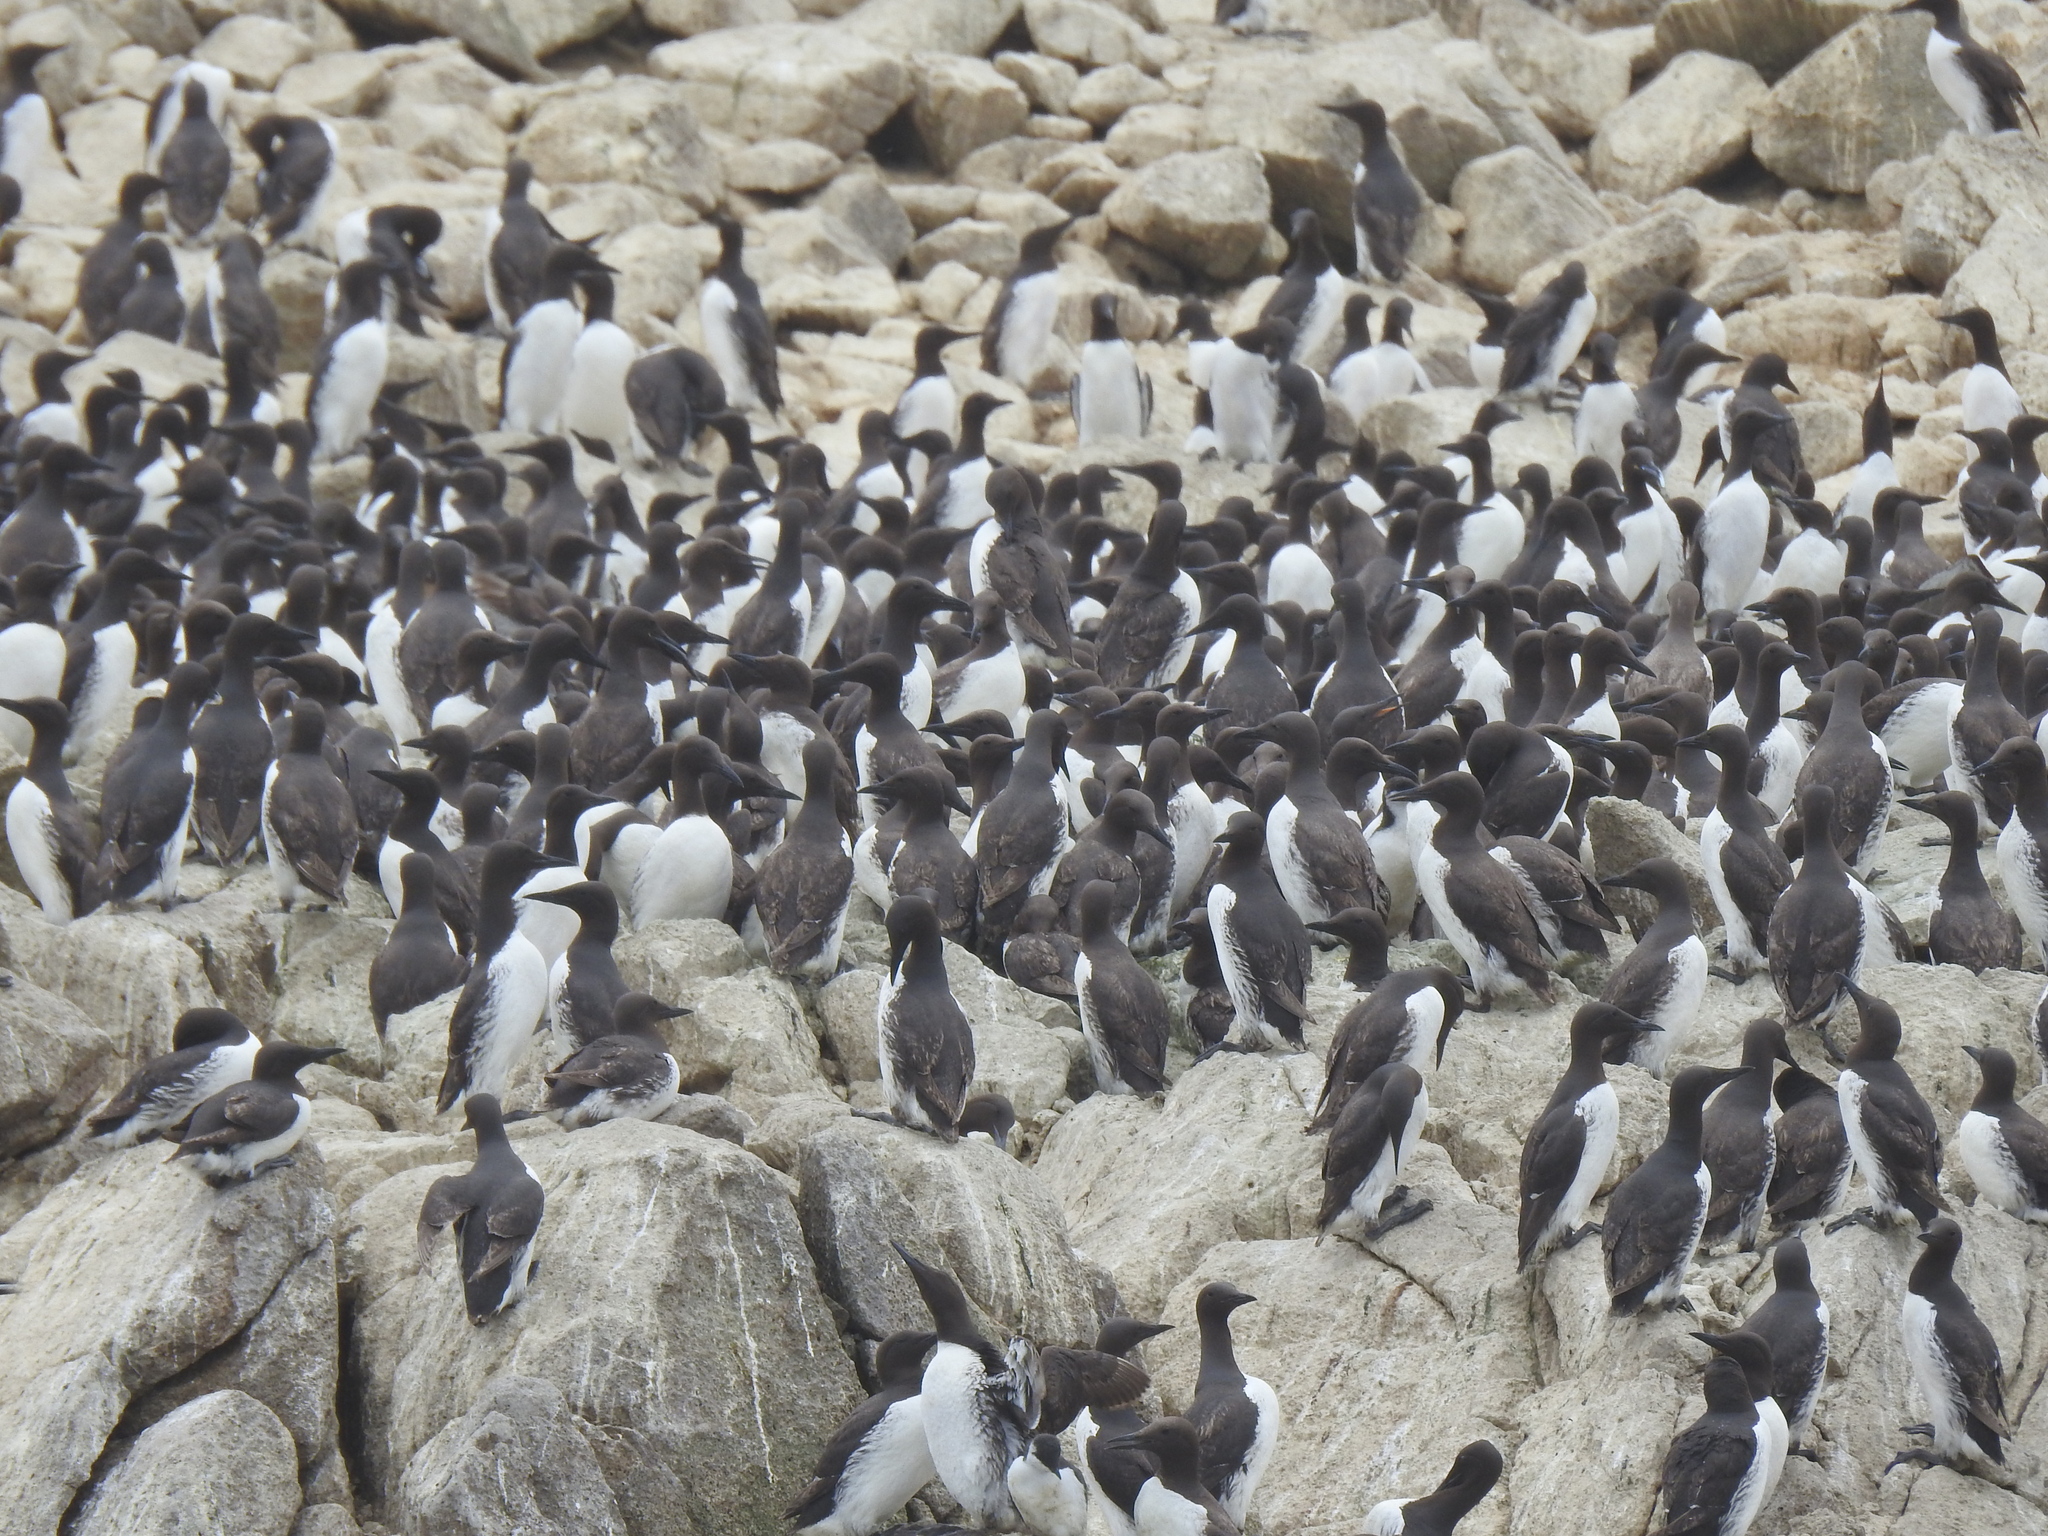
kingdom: Animalia
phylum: Chordata
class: Aves
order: Charadriiformes
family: Alcidae
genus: Uria
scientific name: Uria aalge
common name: Common murre
